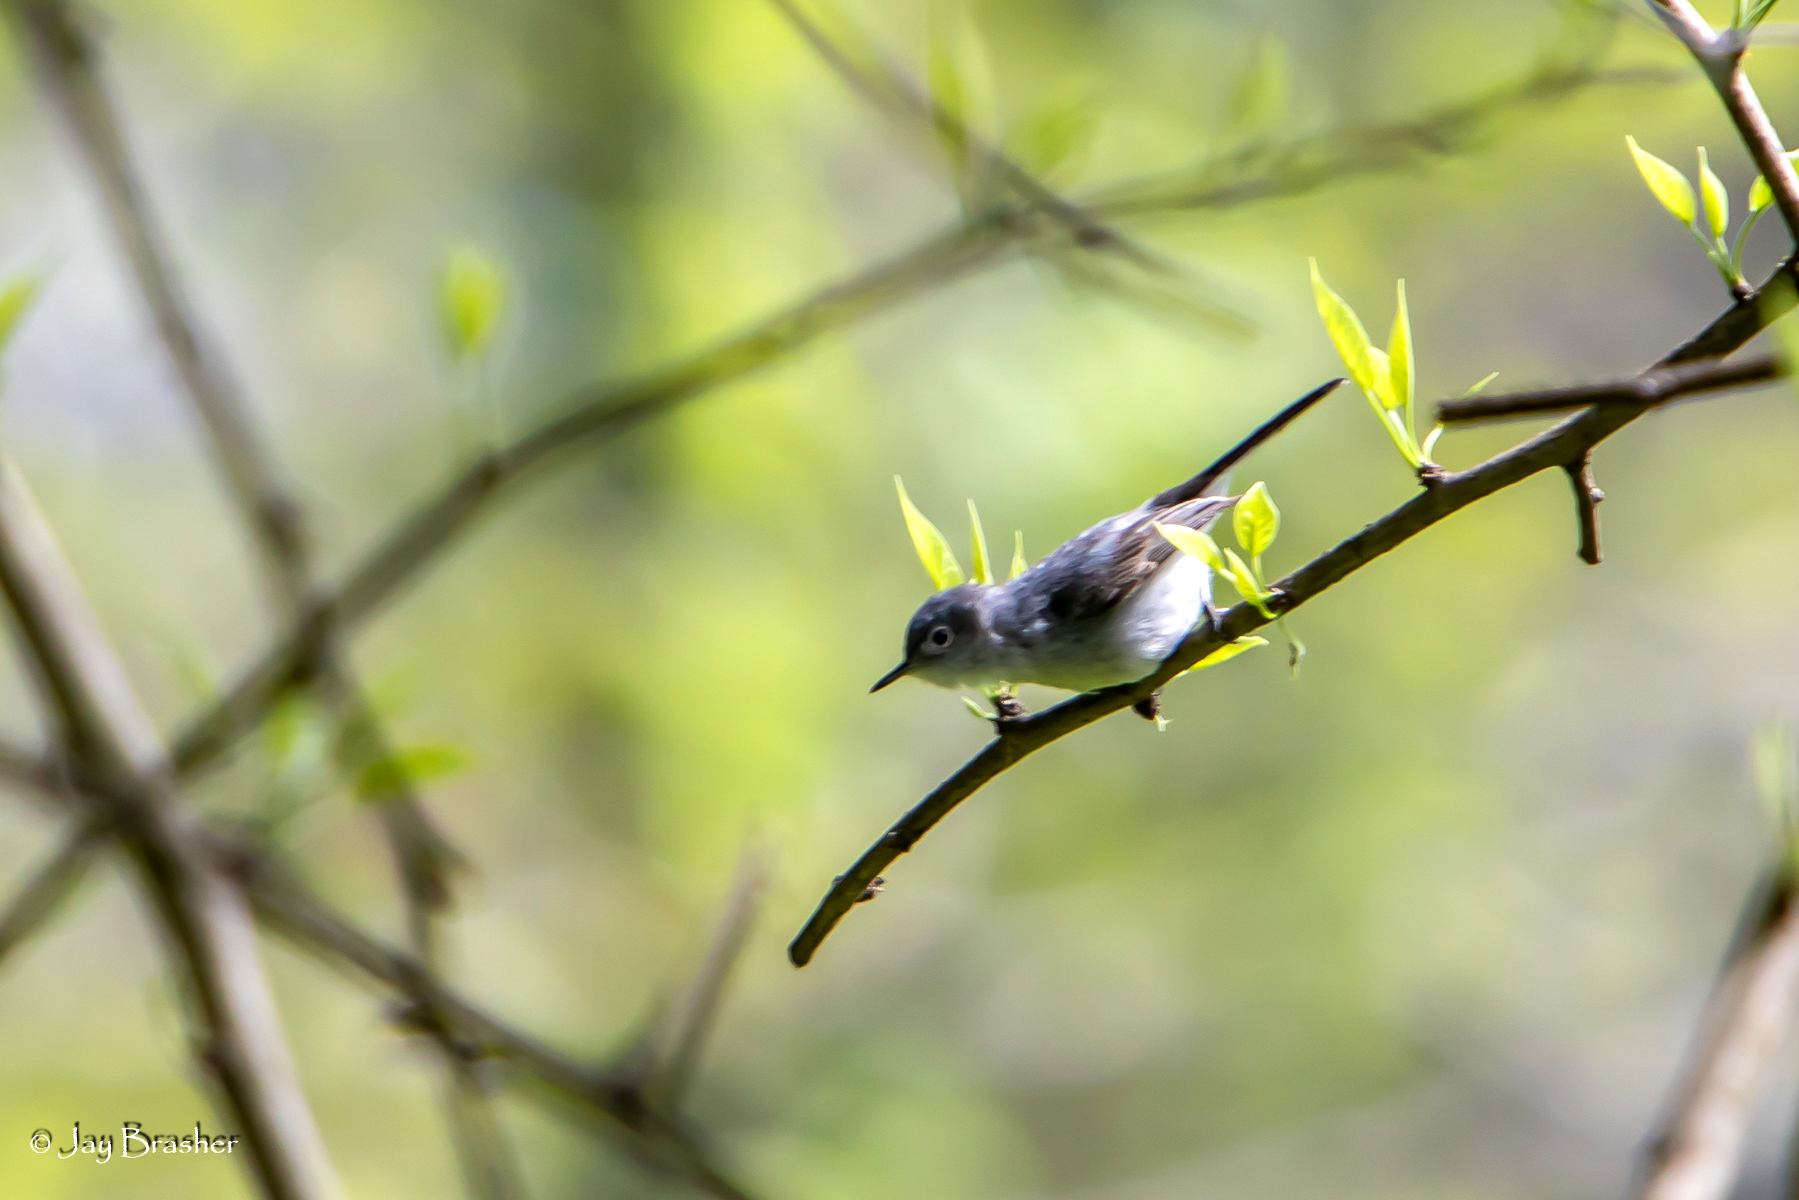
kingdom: Animalia
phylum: Chordata
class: Aves
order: Passeriformes
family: Polioptilidae
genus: Polioptila
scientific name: Polioptila caerulea
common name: Blue-gray gnatcatcher
